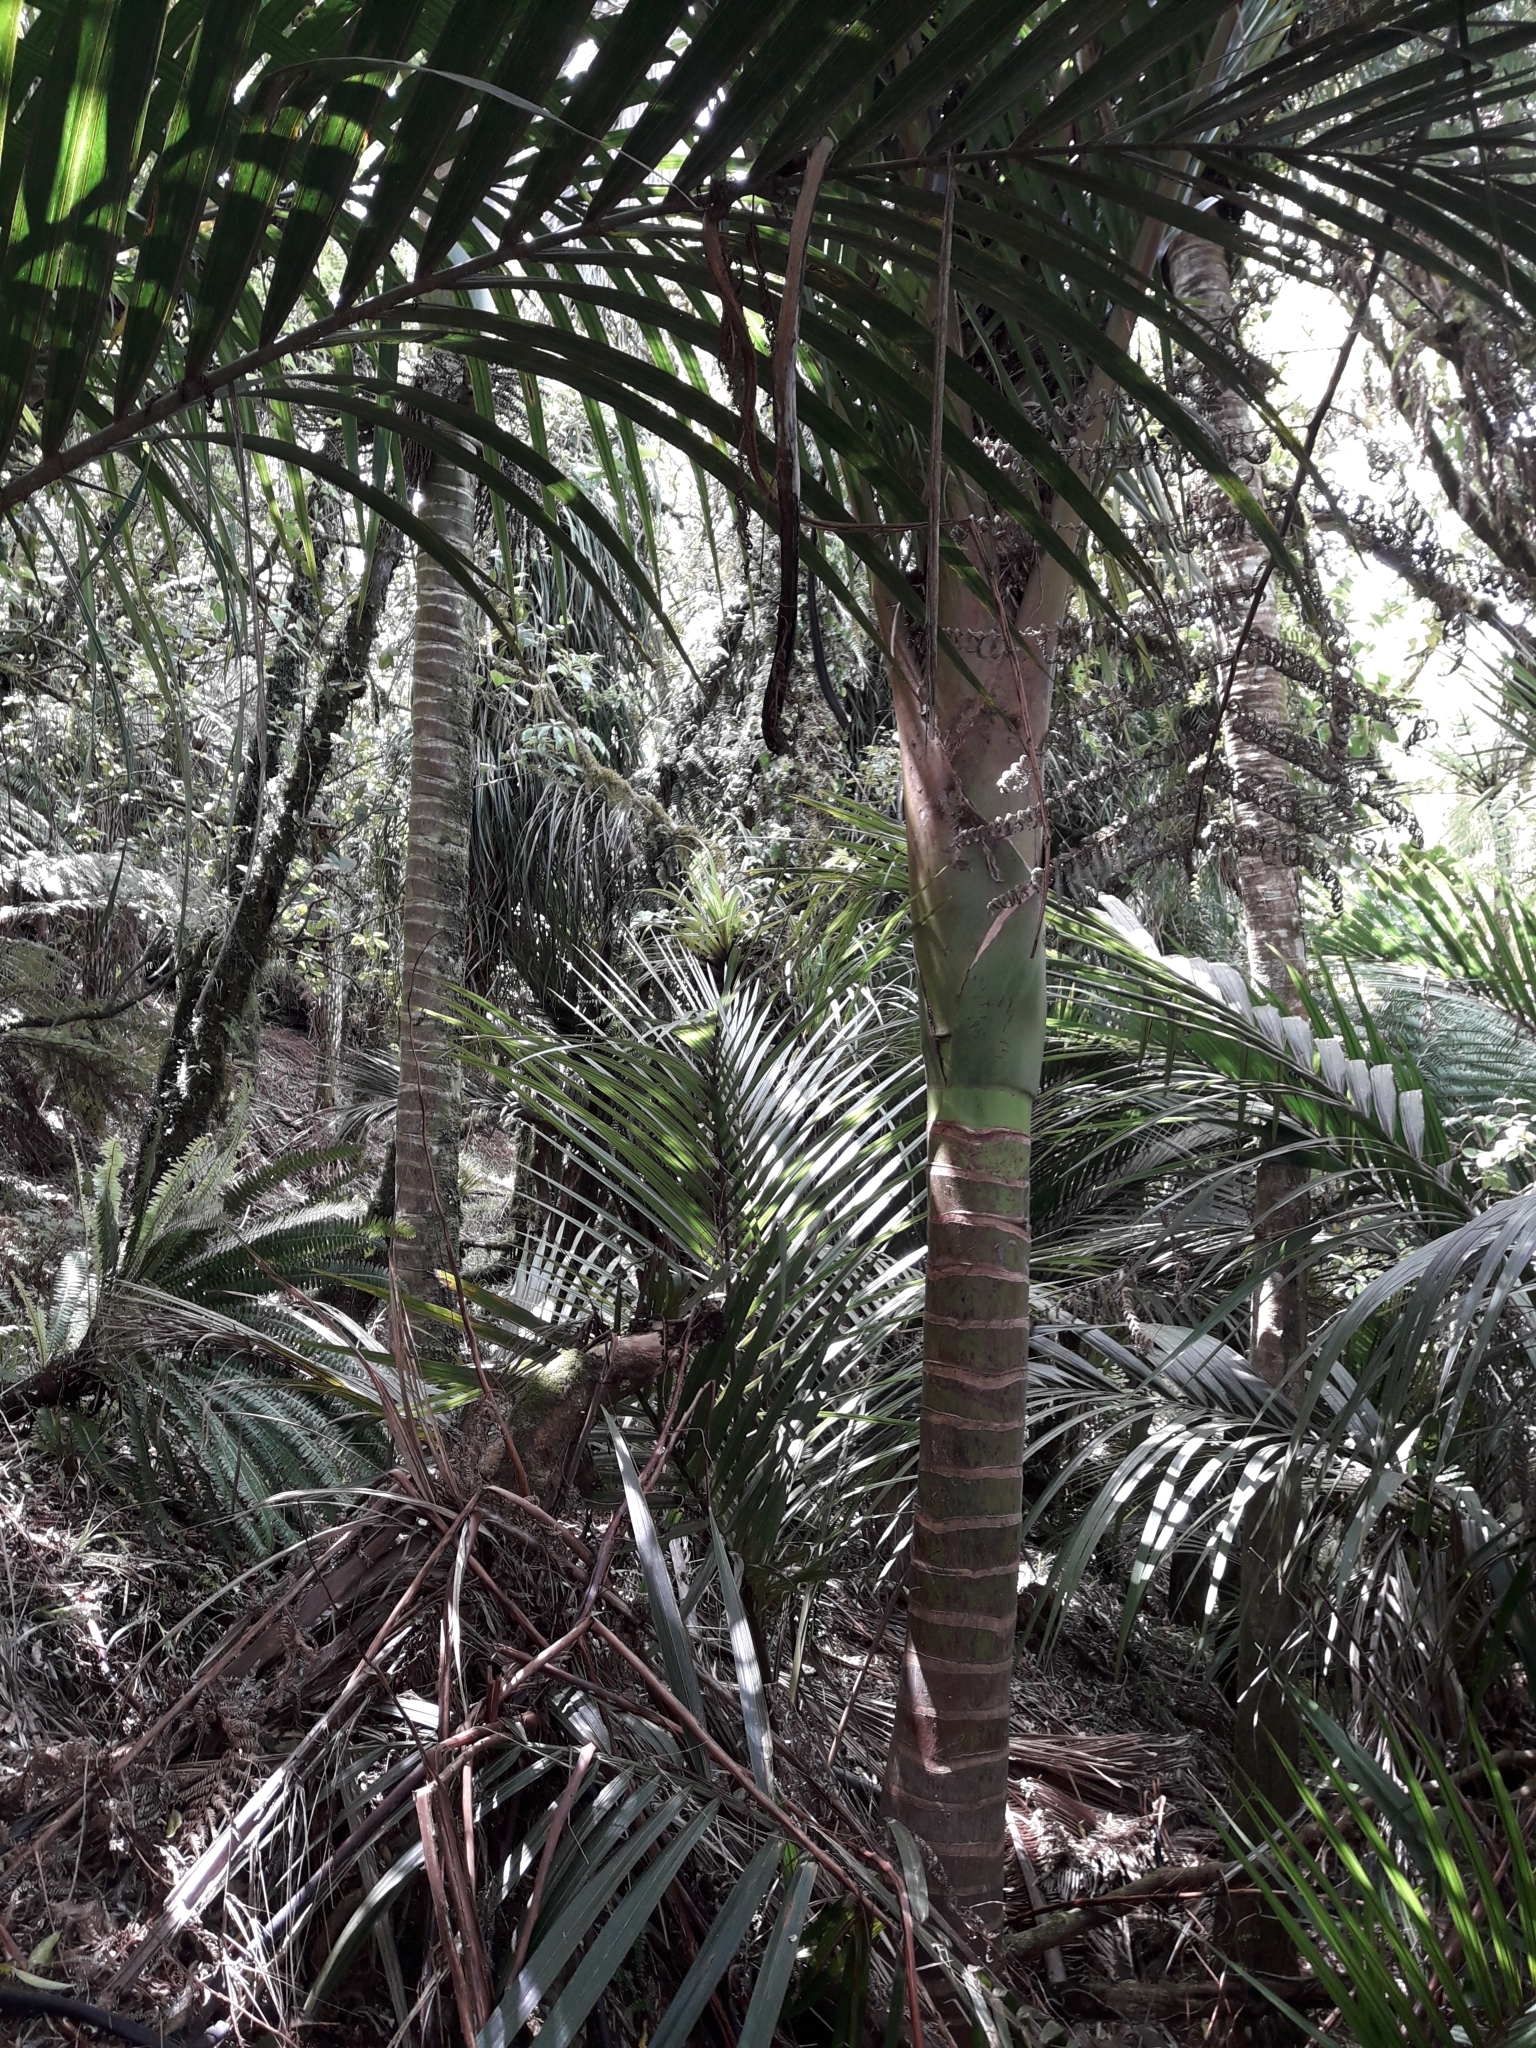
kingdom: Plantae
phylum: Tracheophyta
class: Liliopsida
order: Arecales
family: Arecaceae
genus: Rhopalostylis
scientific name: Rhopalostylis sapida
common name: Feather-duster palm
